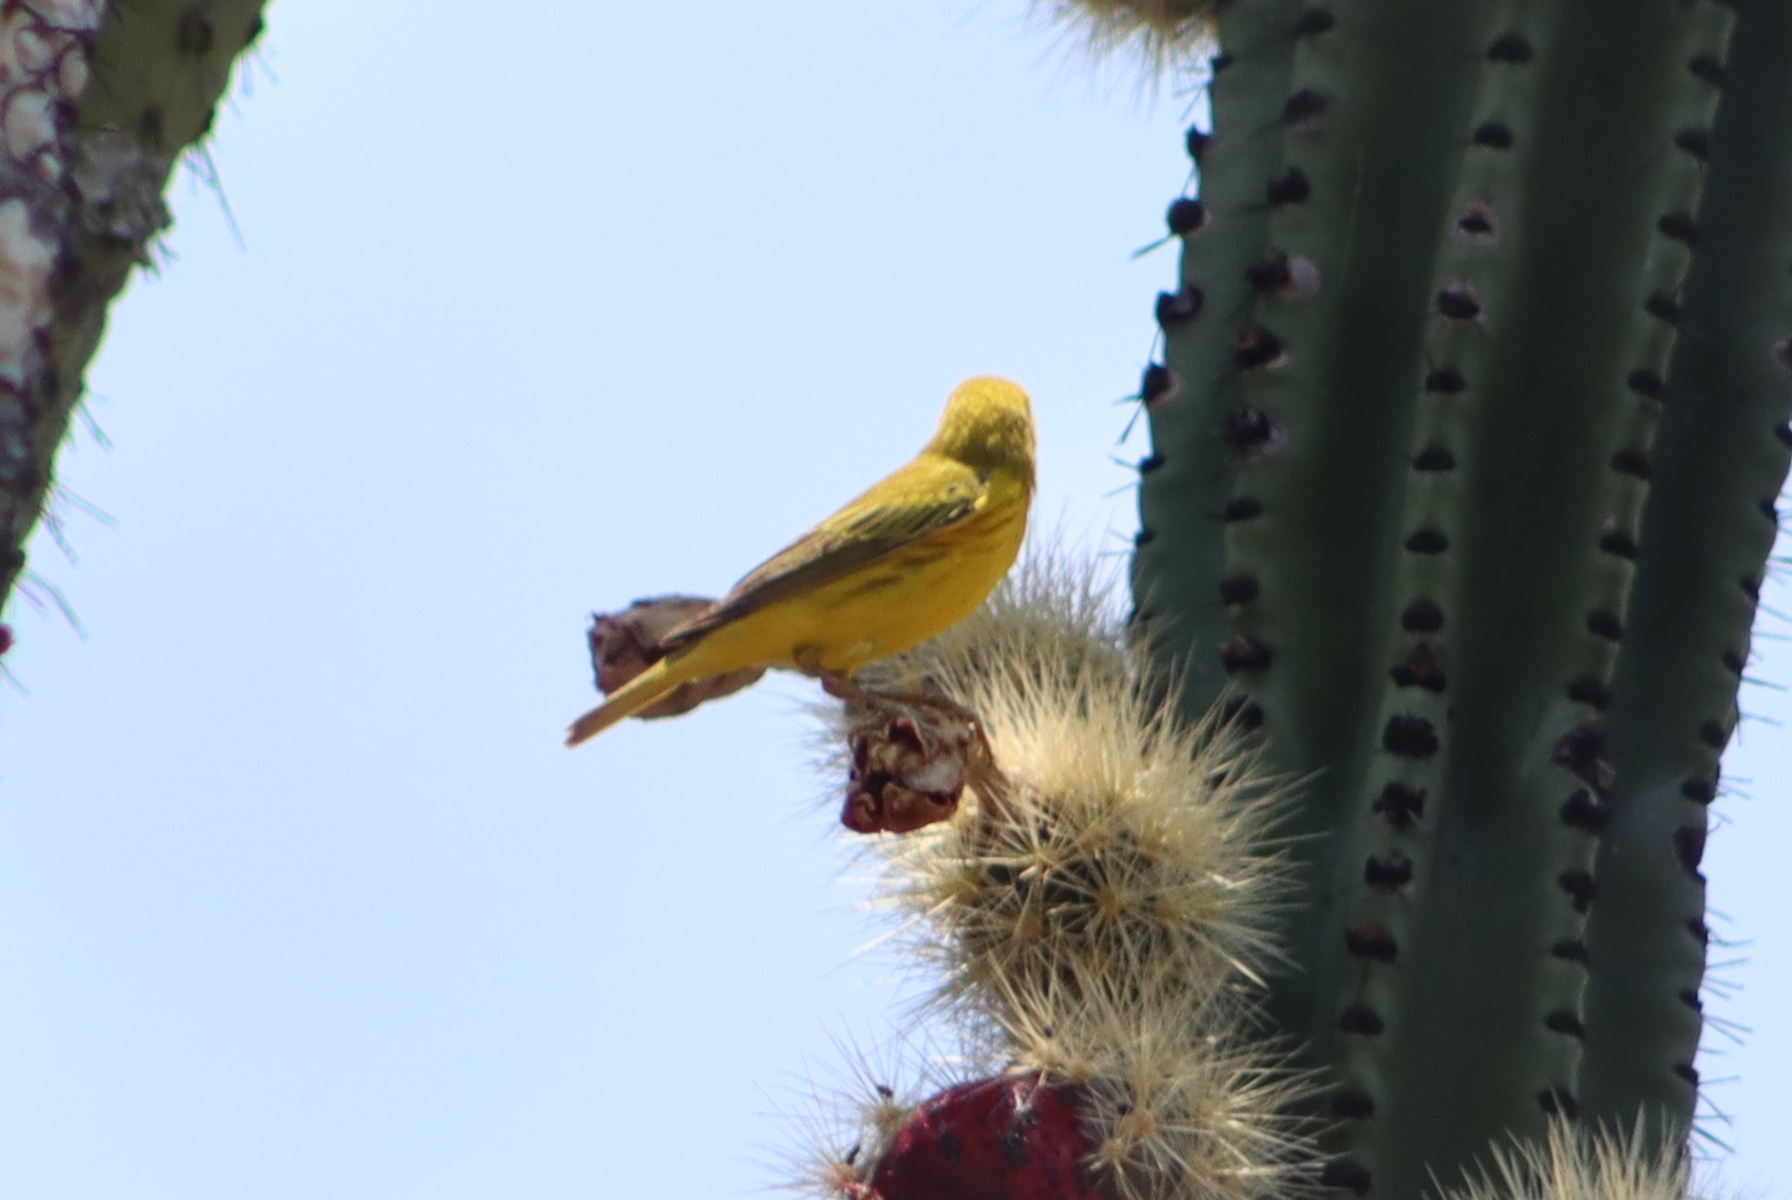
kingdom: Animalia
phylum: Chordata
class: Aves
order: Passeriformes
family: Parulidae
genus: Setophaga
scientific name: Setophaga petechia
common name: Yellow warbler
